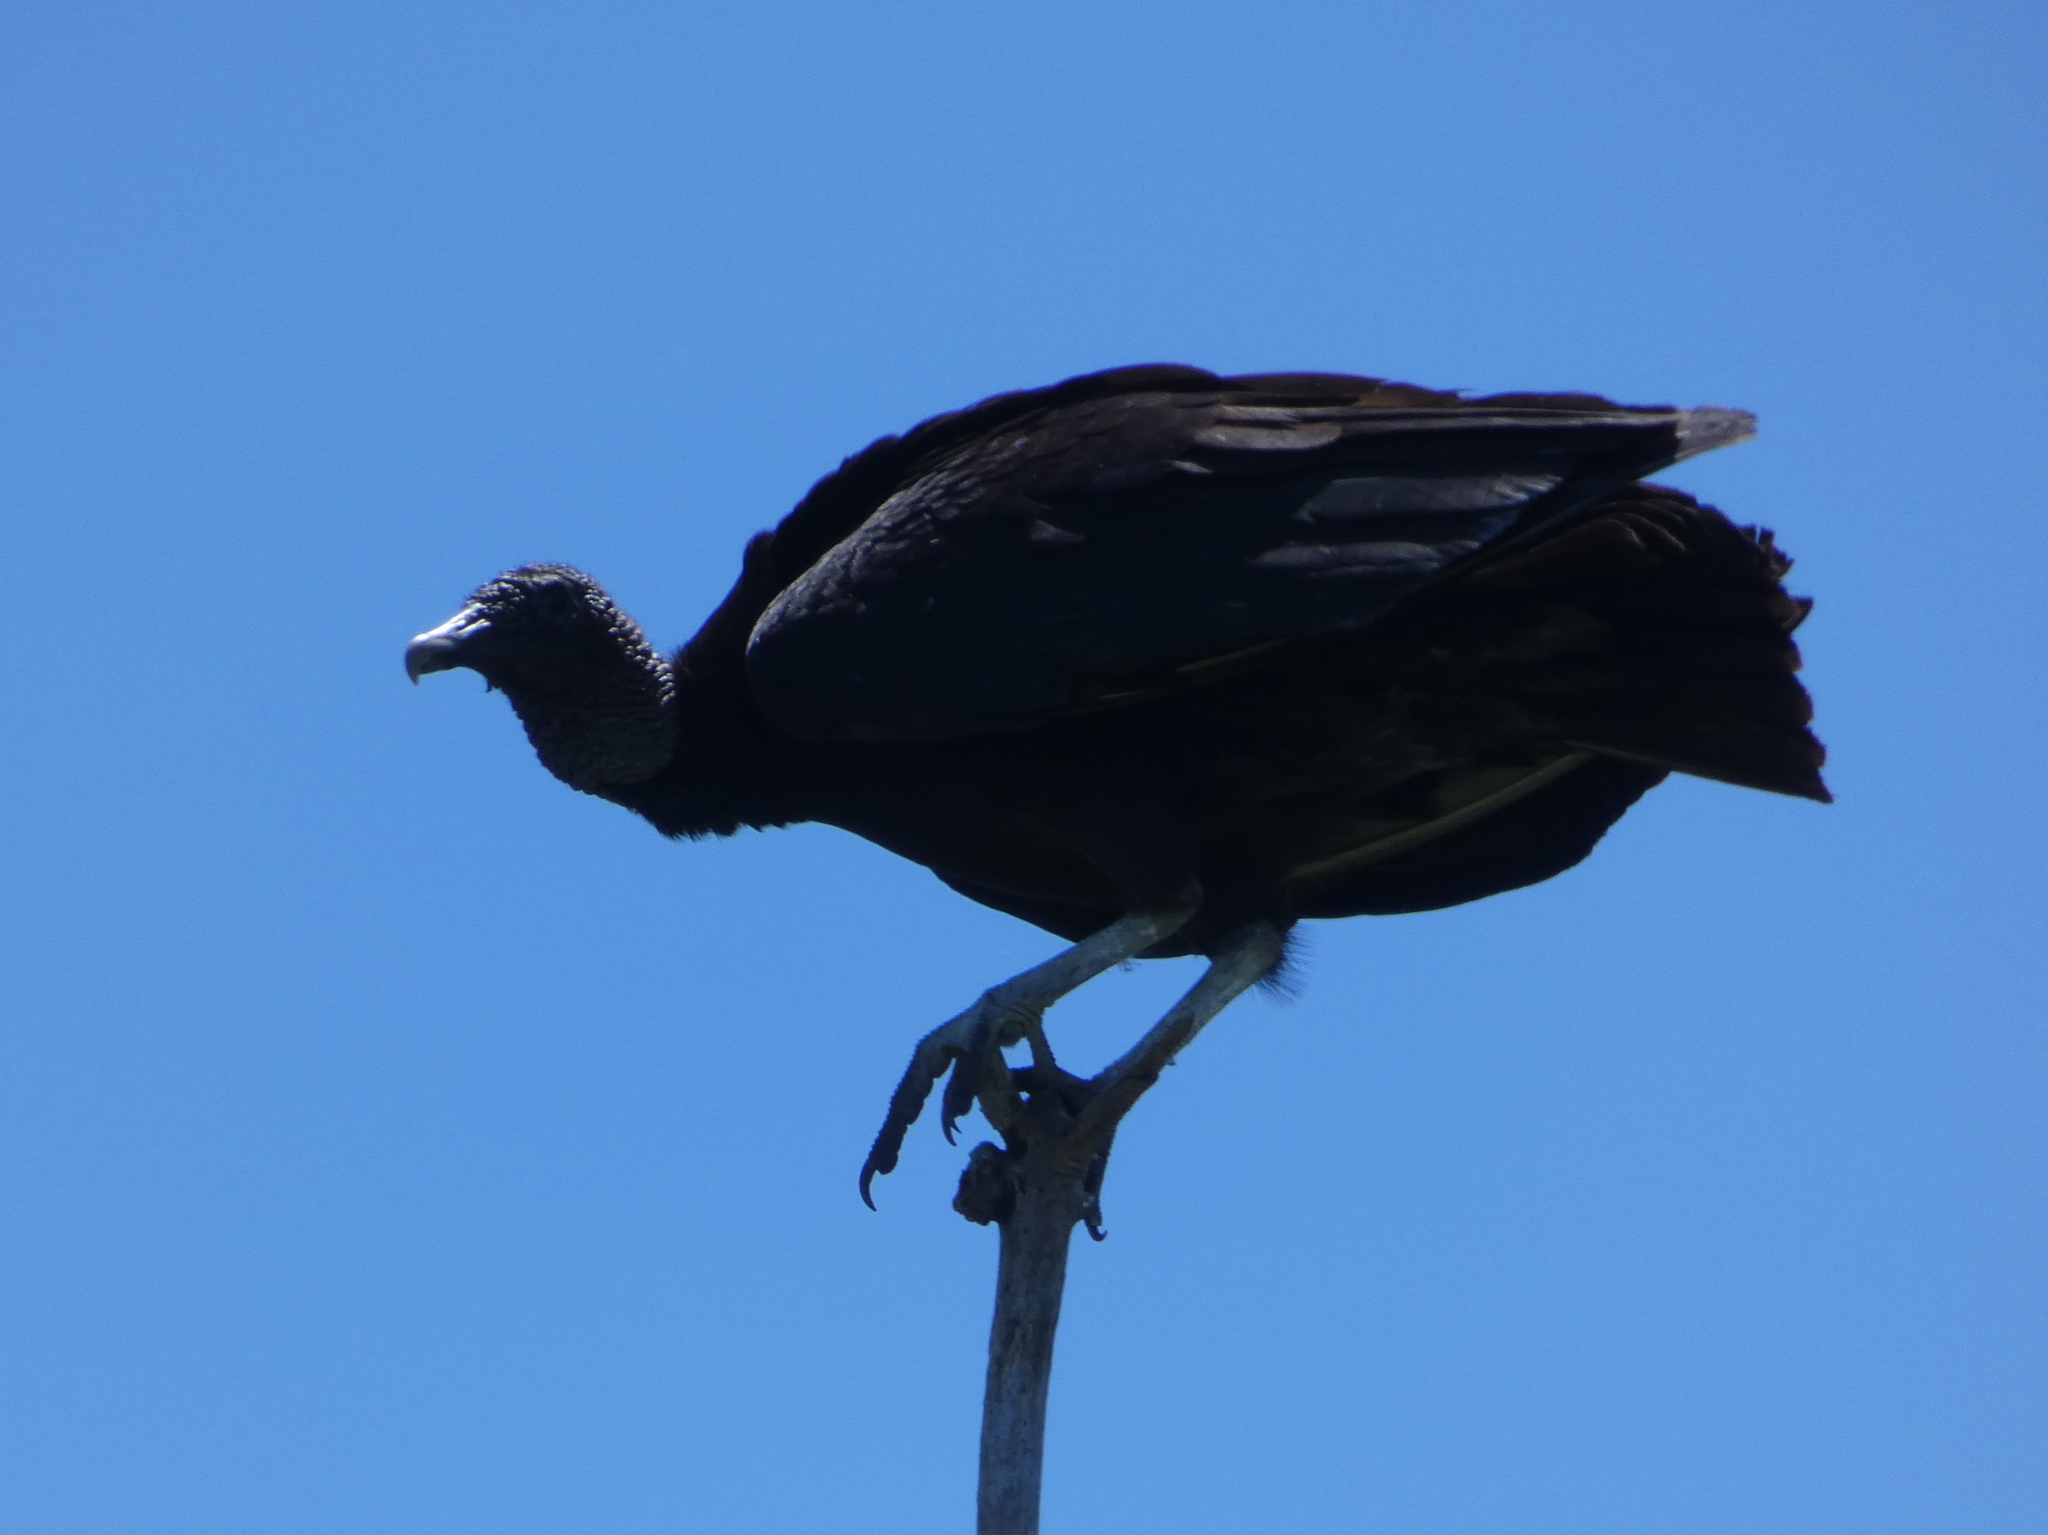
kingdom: Animalia
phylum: Chordata
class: Aves
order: Accipitriformes
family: Cathartidae
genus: Coragyps
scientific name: Coragyps atratus
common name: Black vulture
